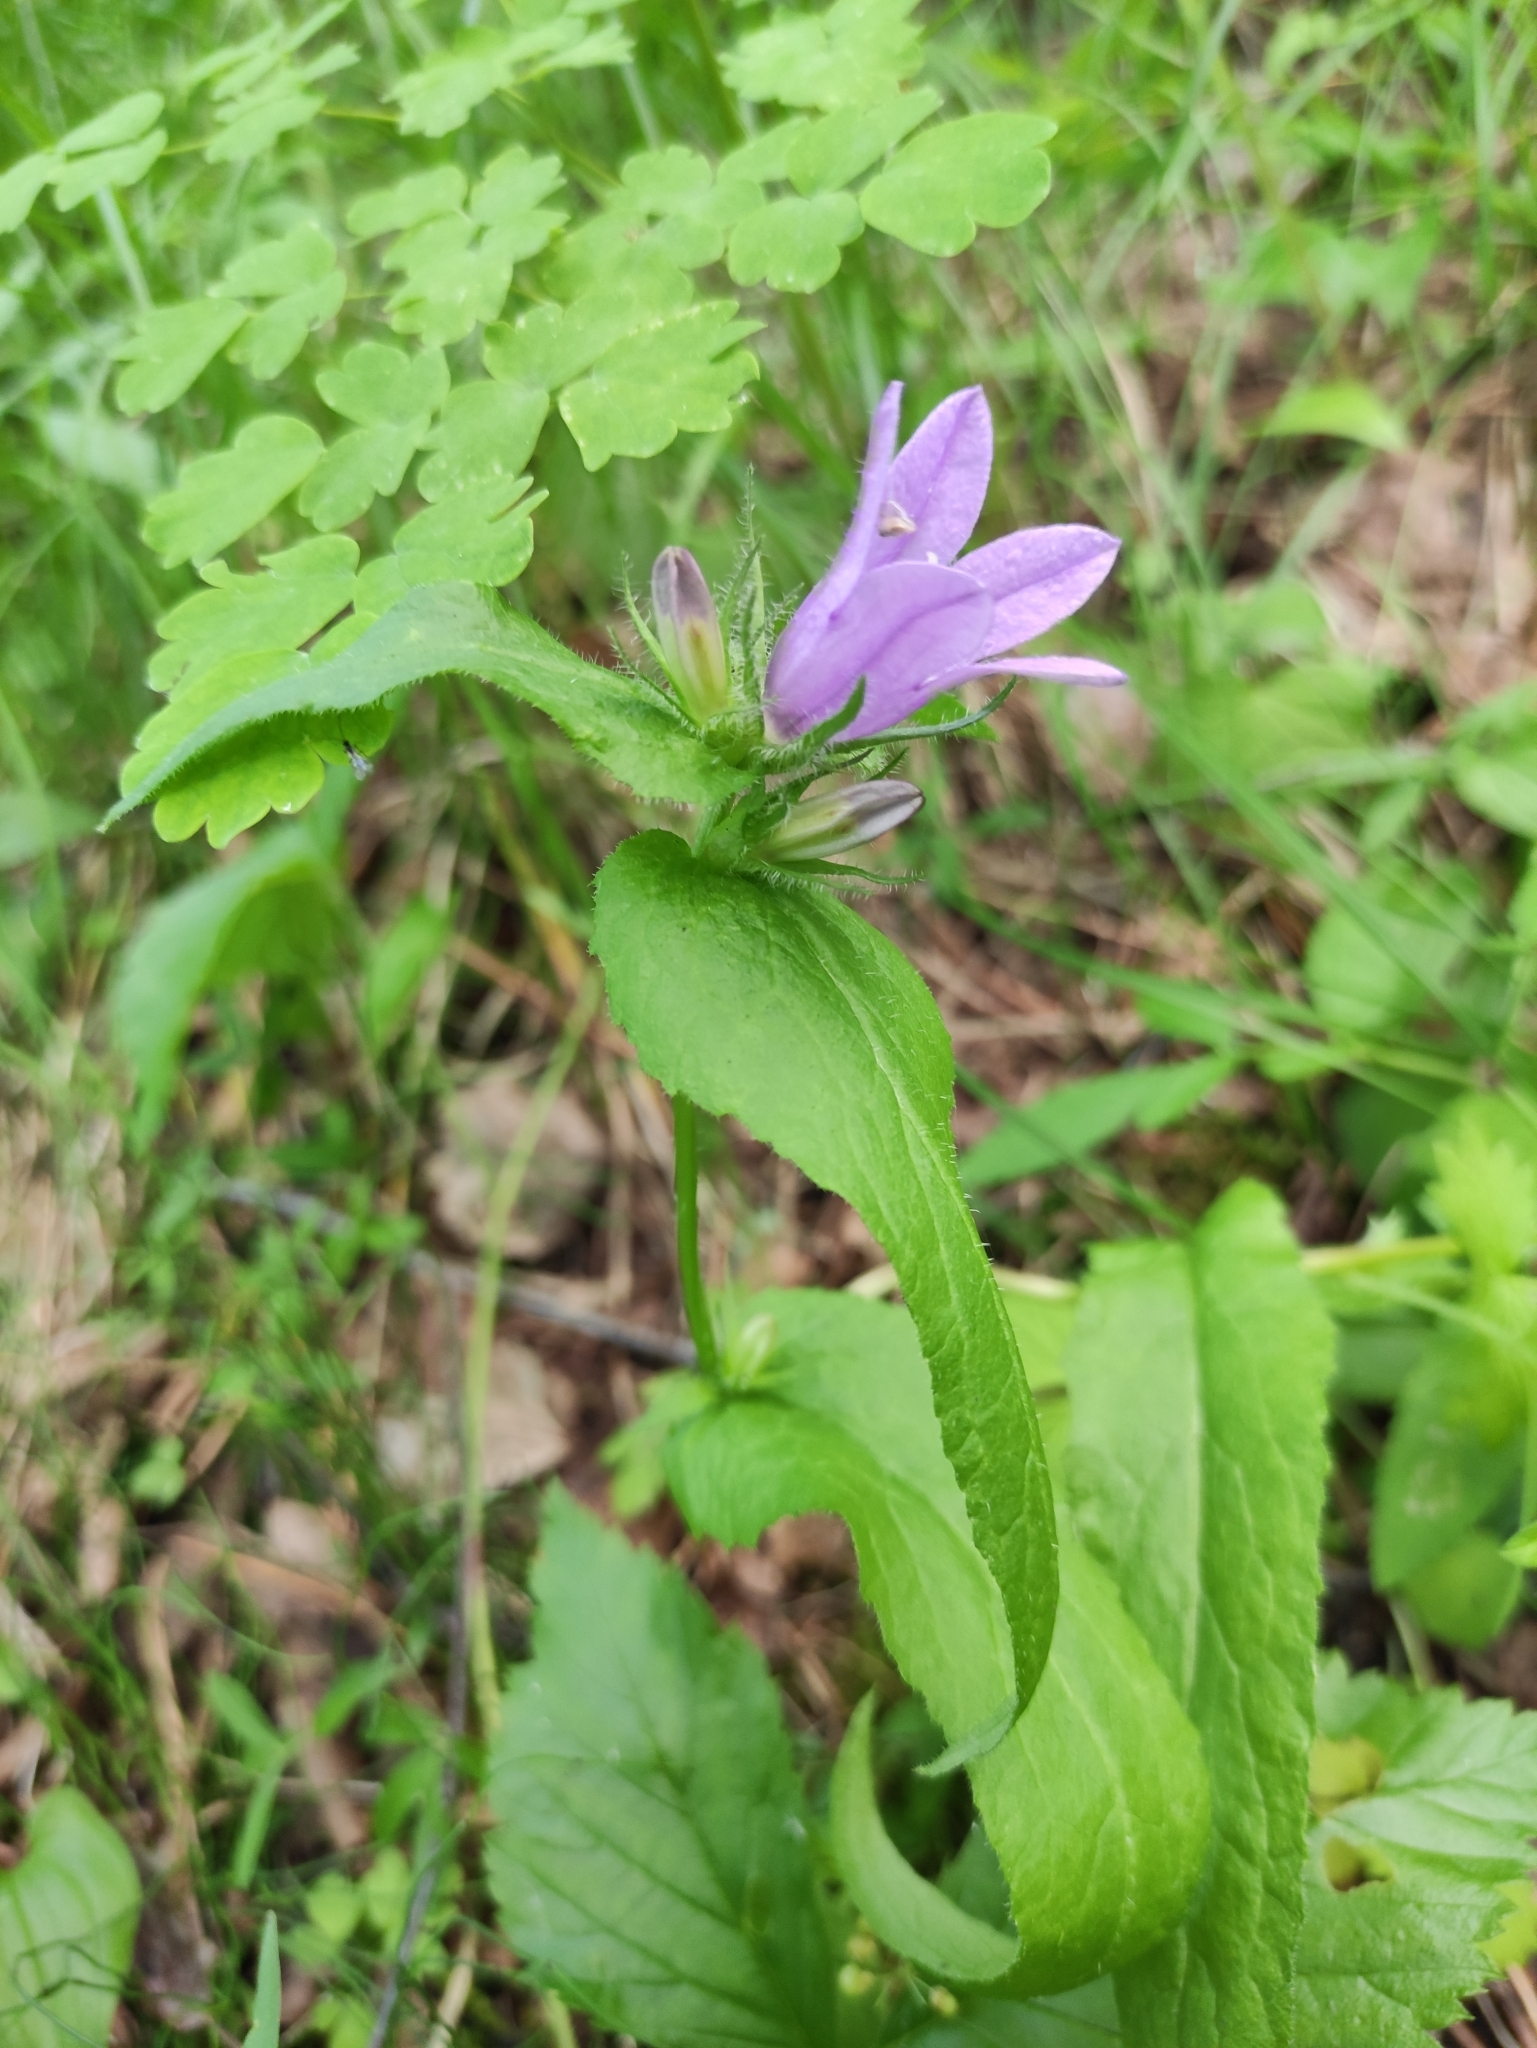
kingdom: Plantae
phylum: Tracheophyta
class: Magnoliopsida
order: Asterales
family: Campanulaceae
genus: Campanula
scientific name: Campanula glomerata
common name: Clustered bellflower
